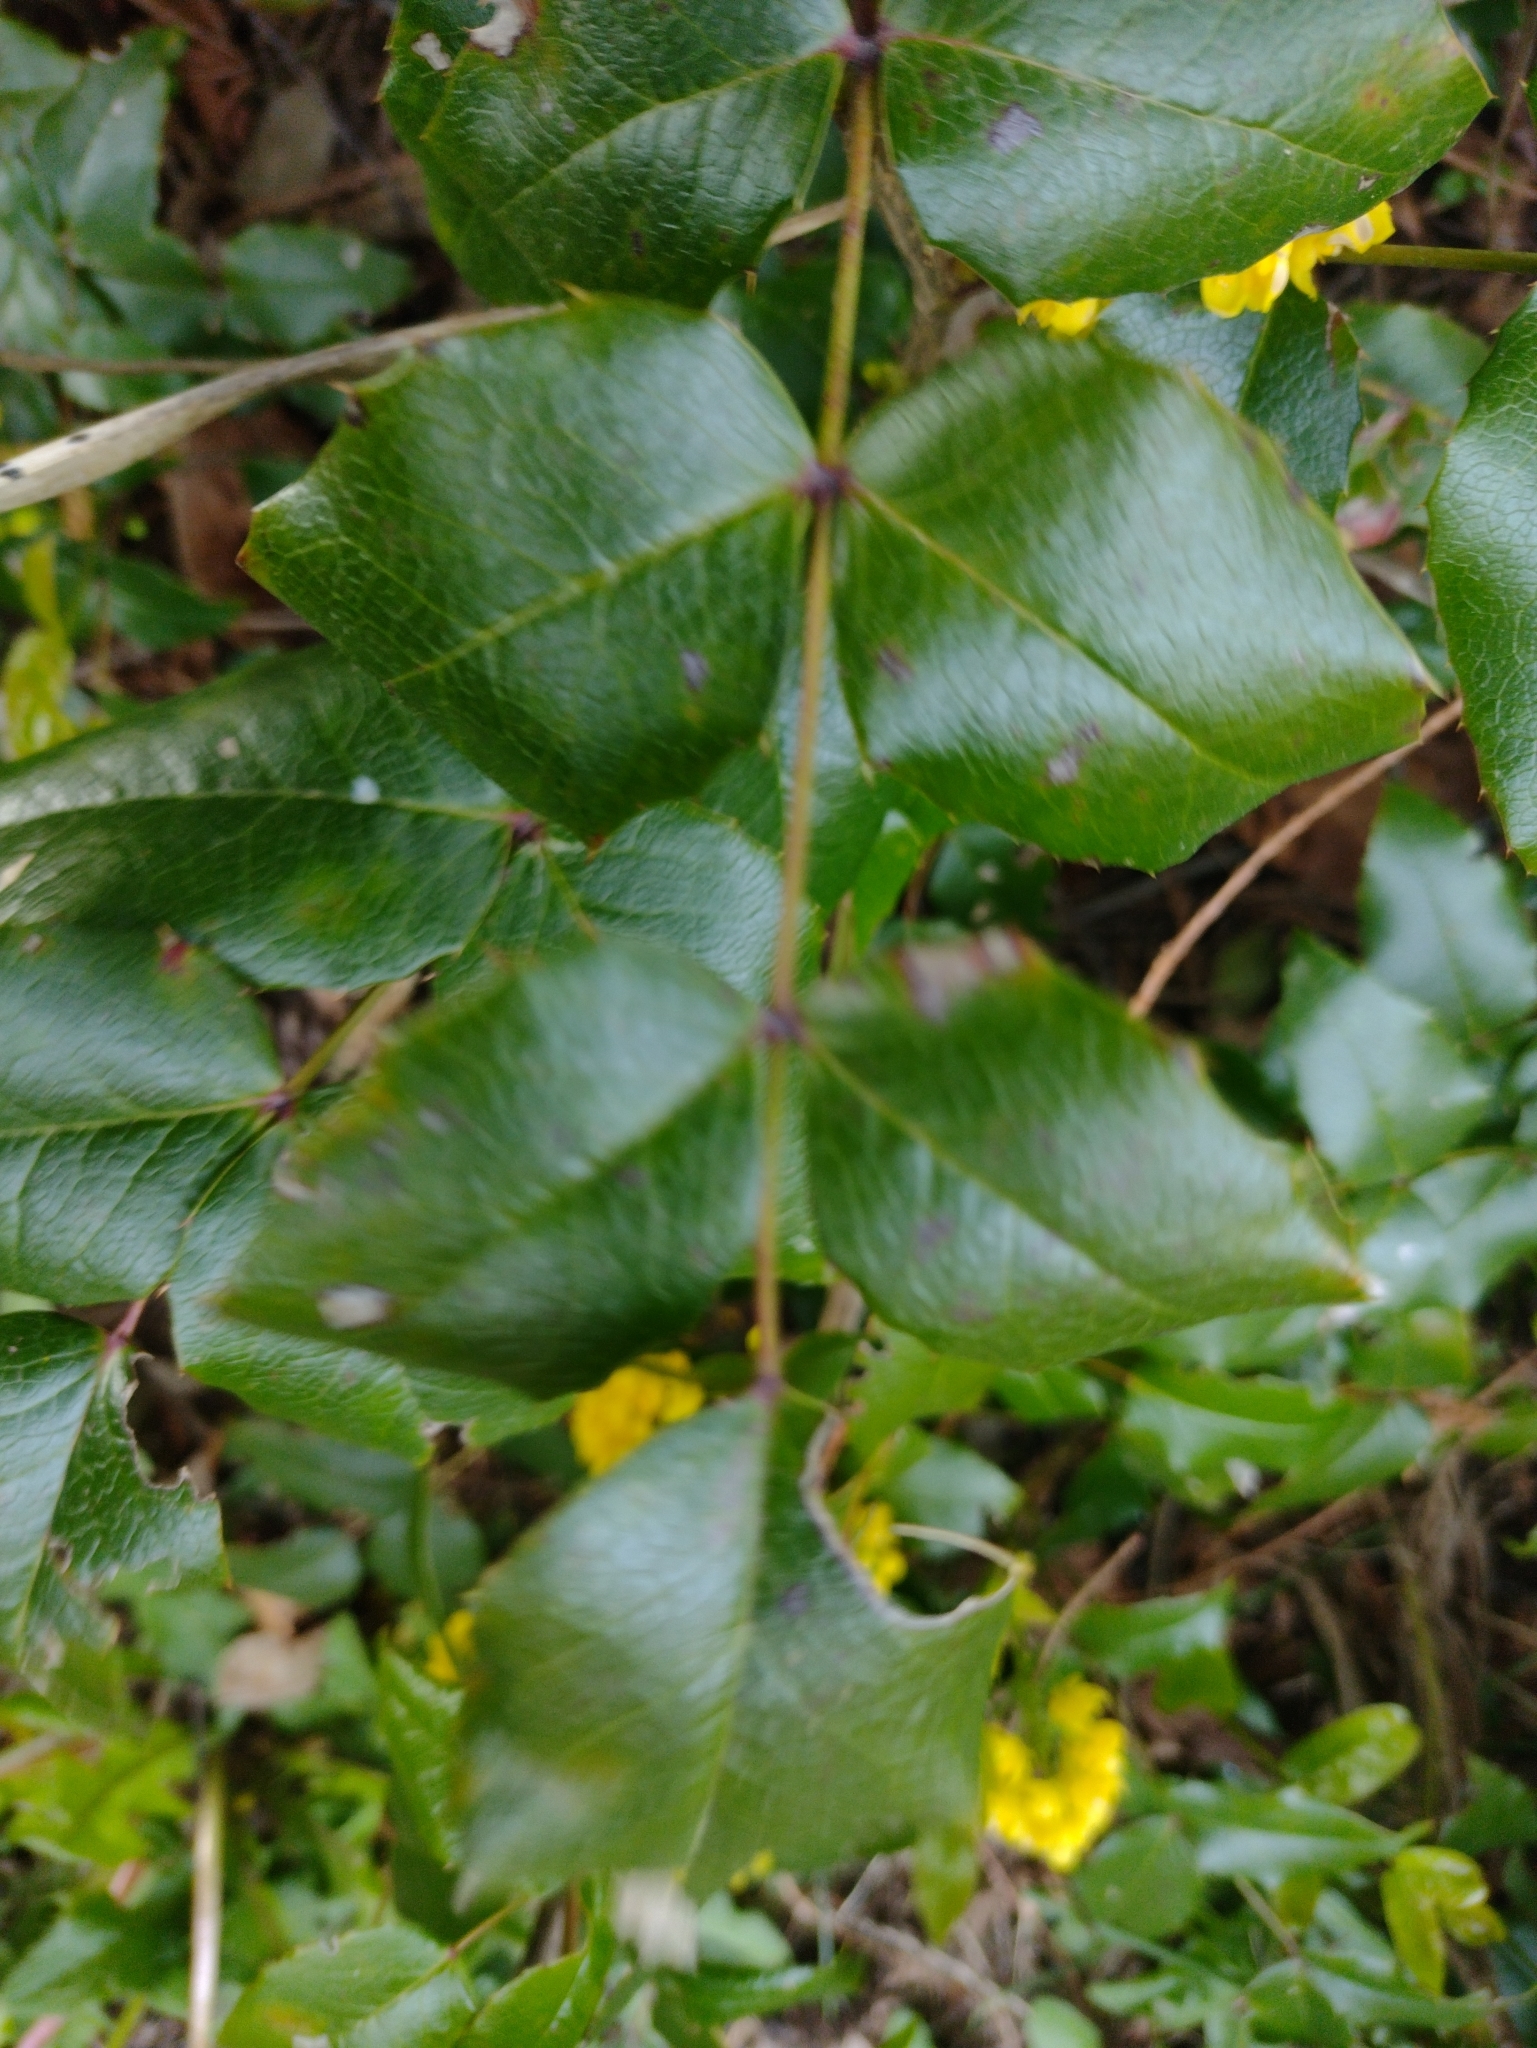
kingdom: Plantae
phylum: Tracheophyta
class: Magnoliopsida
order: Ranunculales
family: Berberidaceae
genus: Mahonia
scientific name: Mahonia aquifolium
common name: Oregon-grape
